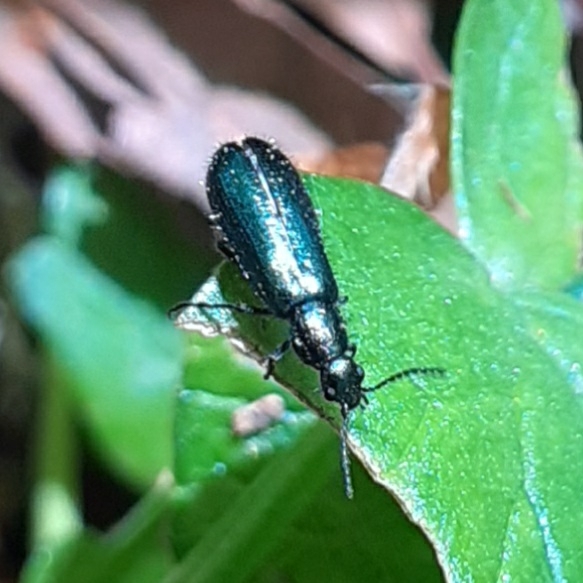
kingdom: Animalia
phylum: Arthropoda
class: Insecta
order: Coleoptera
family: Melyridae
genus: Dasytes
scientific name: Dasytes caeruleus
